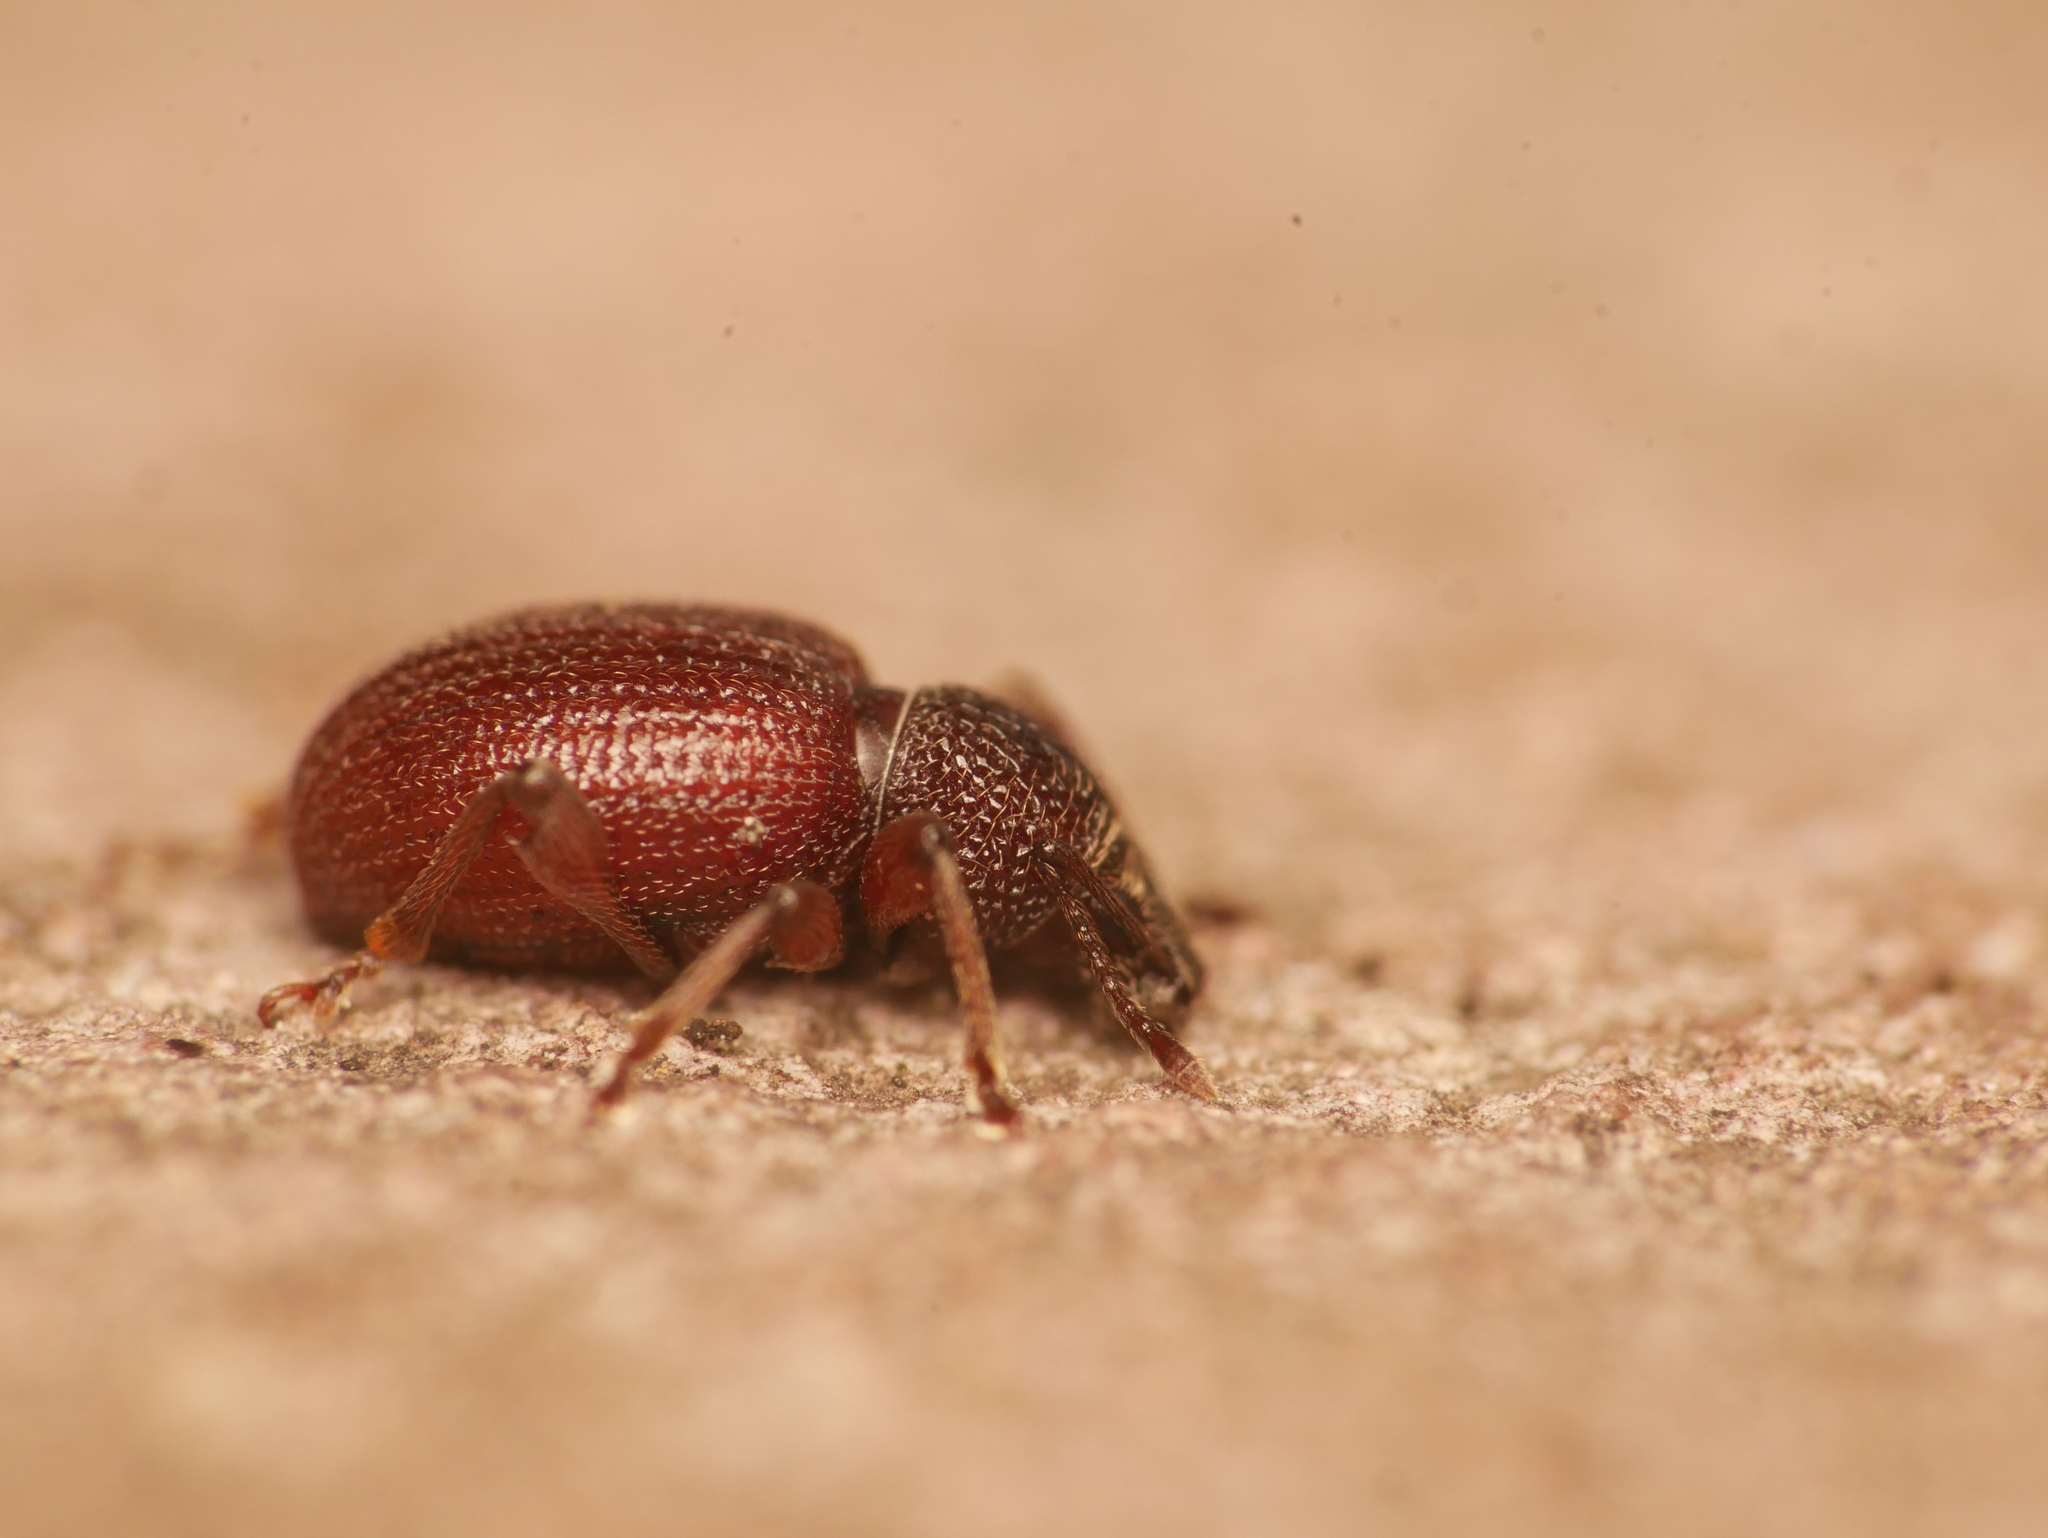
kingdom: Animalia
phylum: Arthropoda
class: Insecta
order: Coleoptera
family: Curculionidae
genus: Otiorhynchus
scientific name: Otiorhynchus ovatus
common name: Strawberry root weevil
